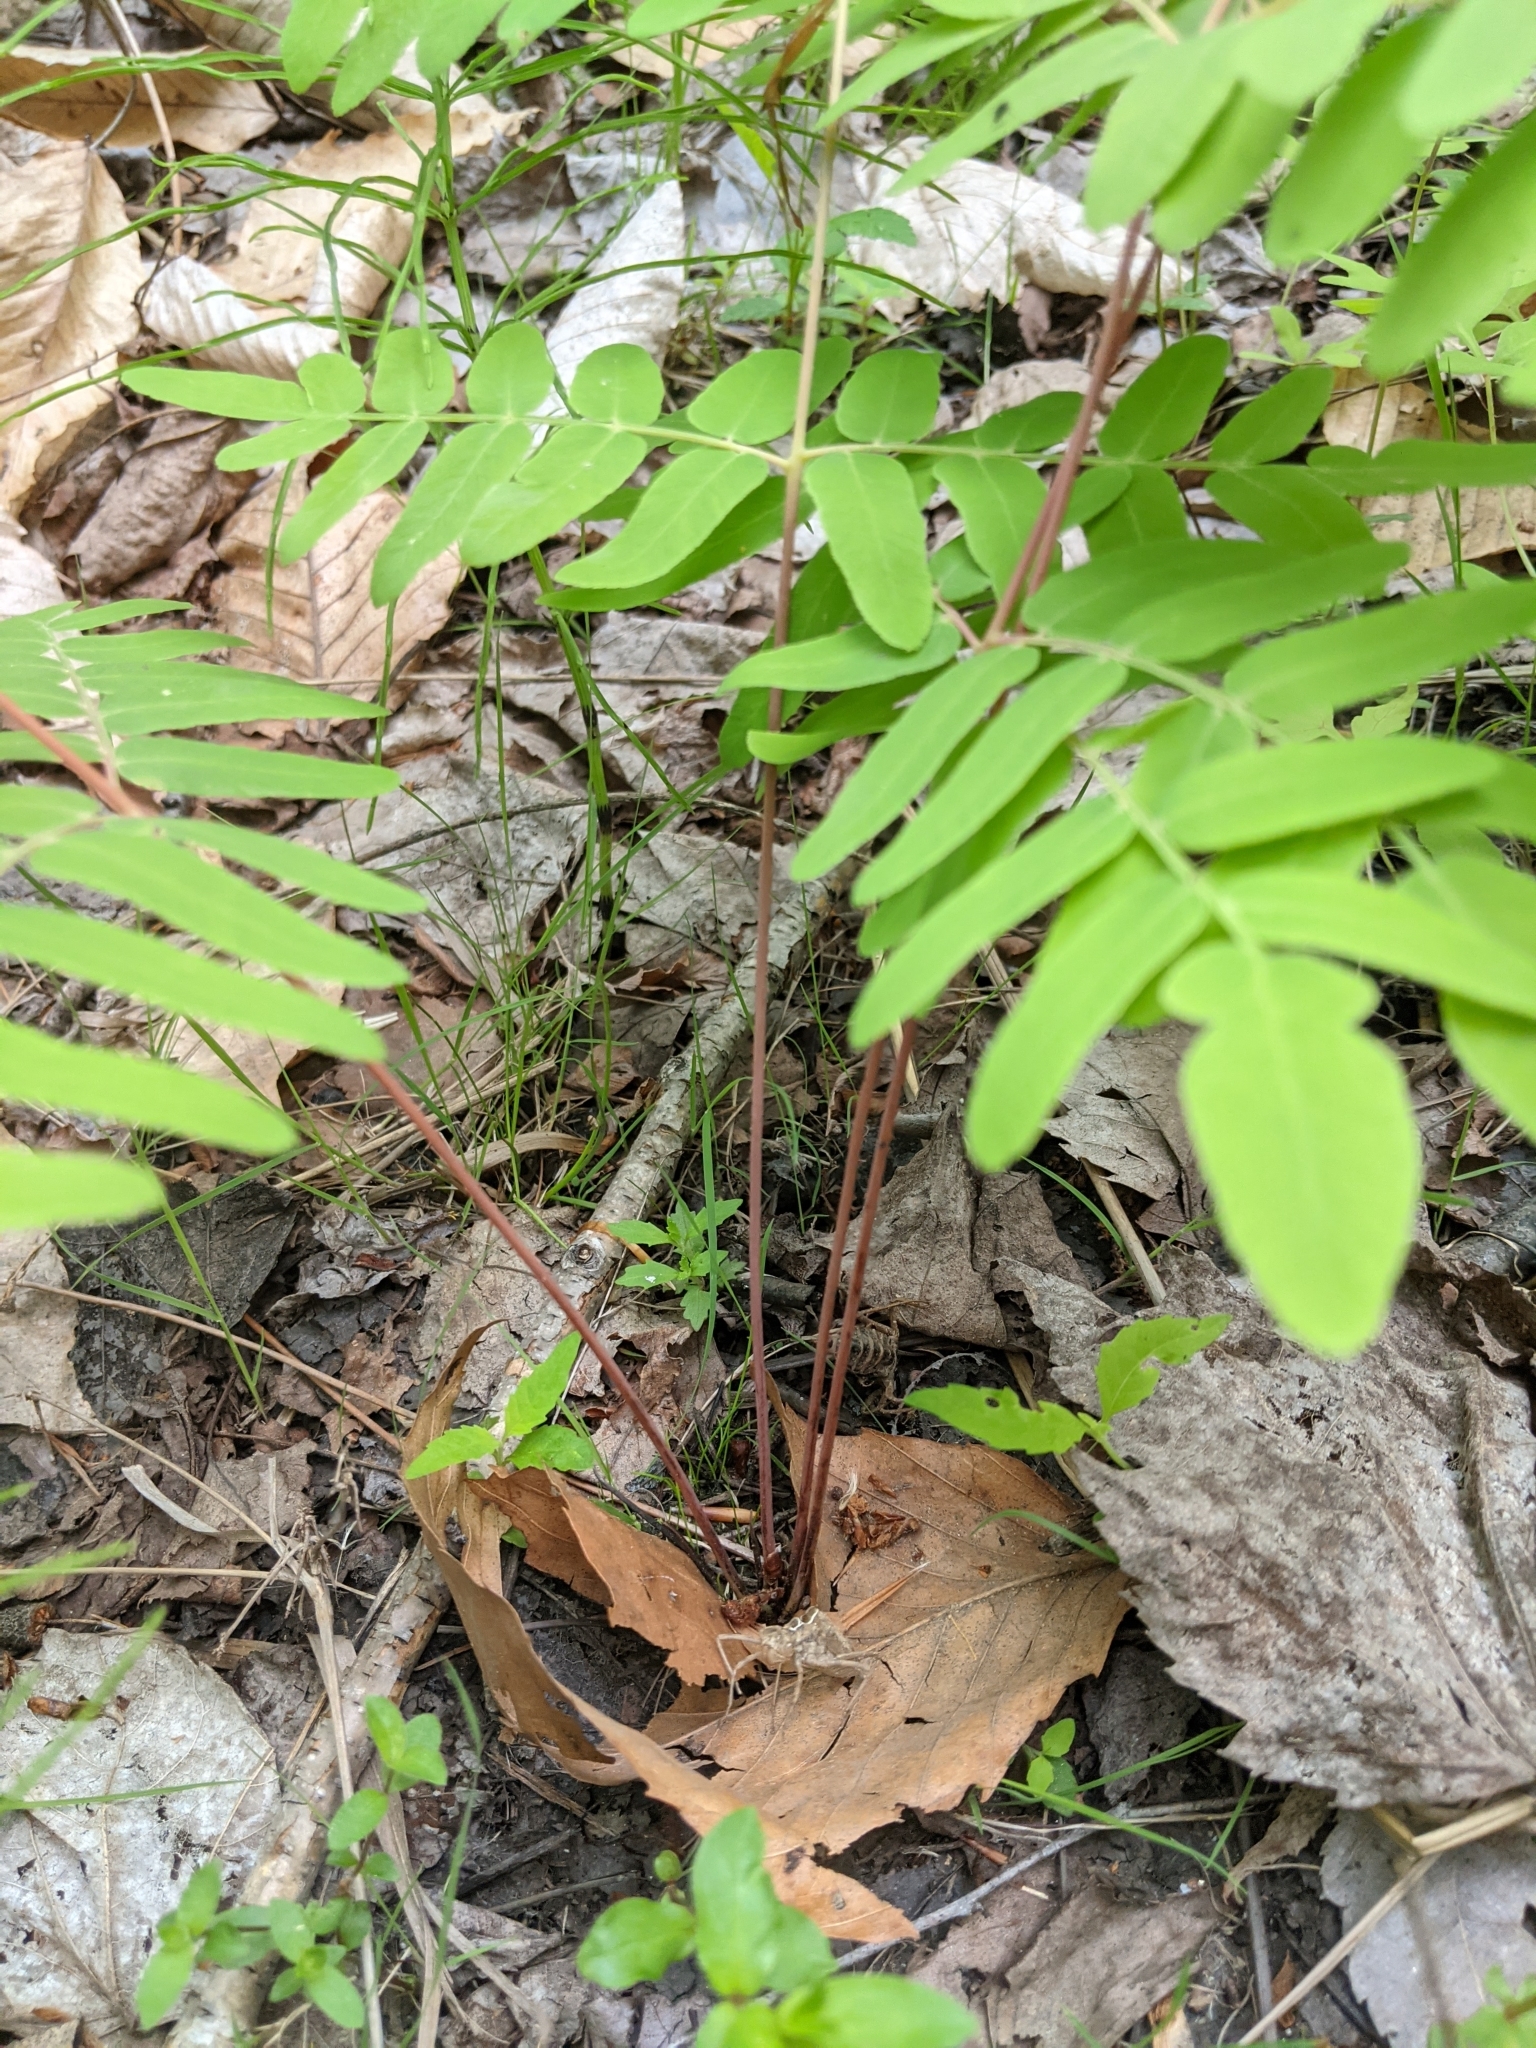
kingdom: Plantae
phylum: Tracheophyta
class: Polypodiopsida
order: Osmundales
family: Osmundaceae
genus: Osmunda
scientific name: Osmunda spectabilis
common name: American royal fern
